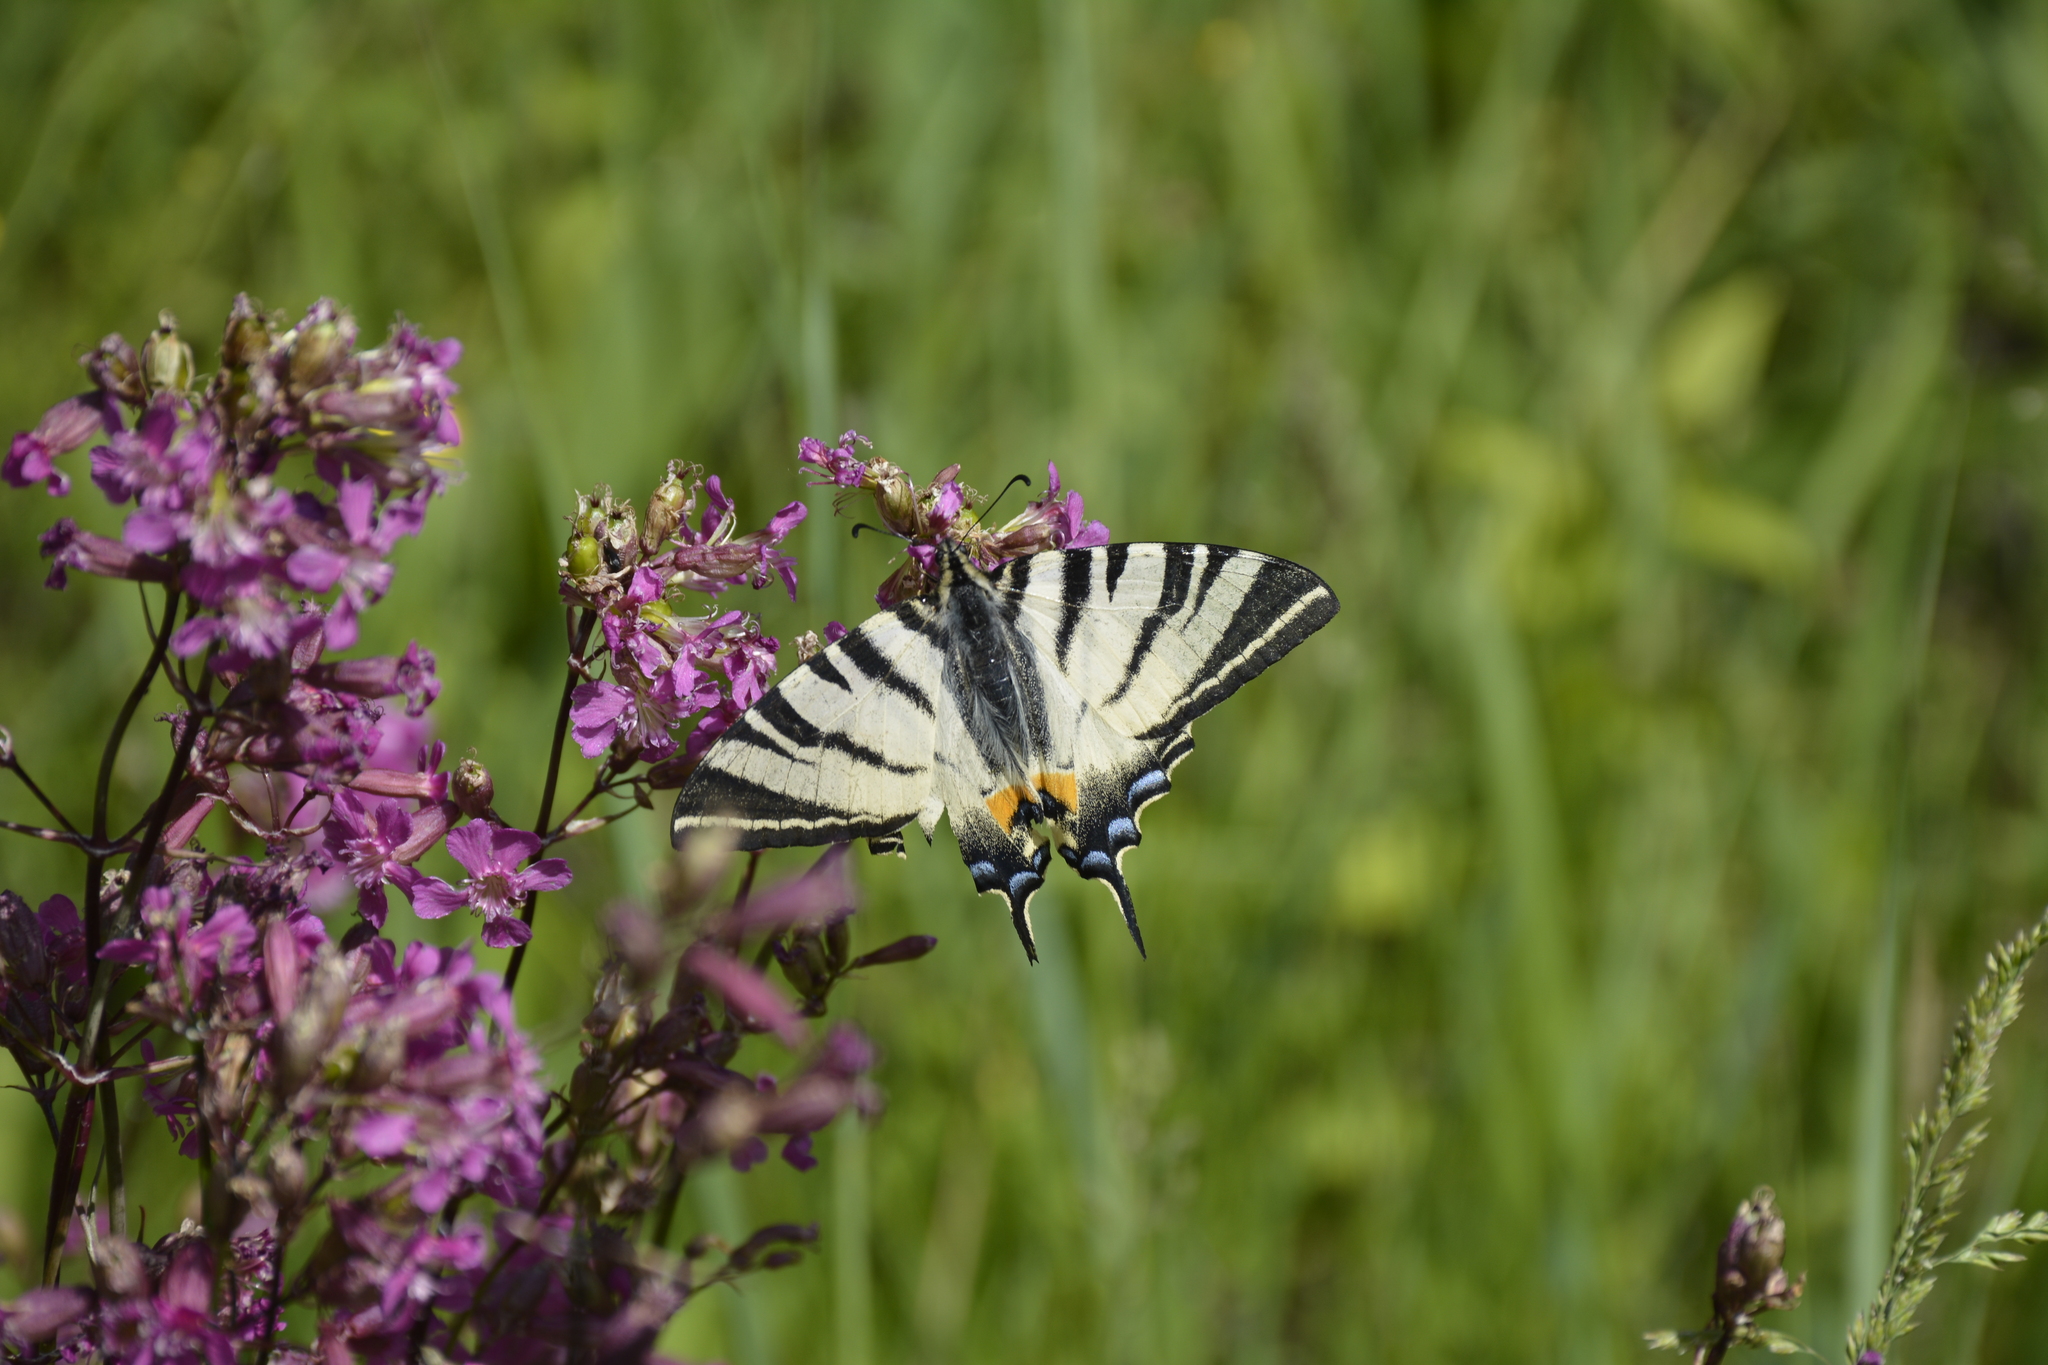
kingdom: Animalia
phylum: Arthropoda
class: Insecta
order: Lepidoptera
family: Papilionidae
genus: Iphiclides
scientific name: Iphiclides podalirius
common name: Scarce swallowtail
